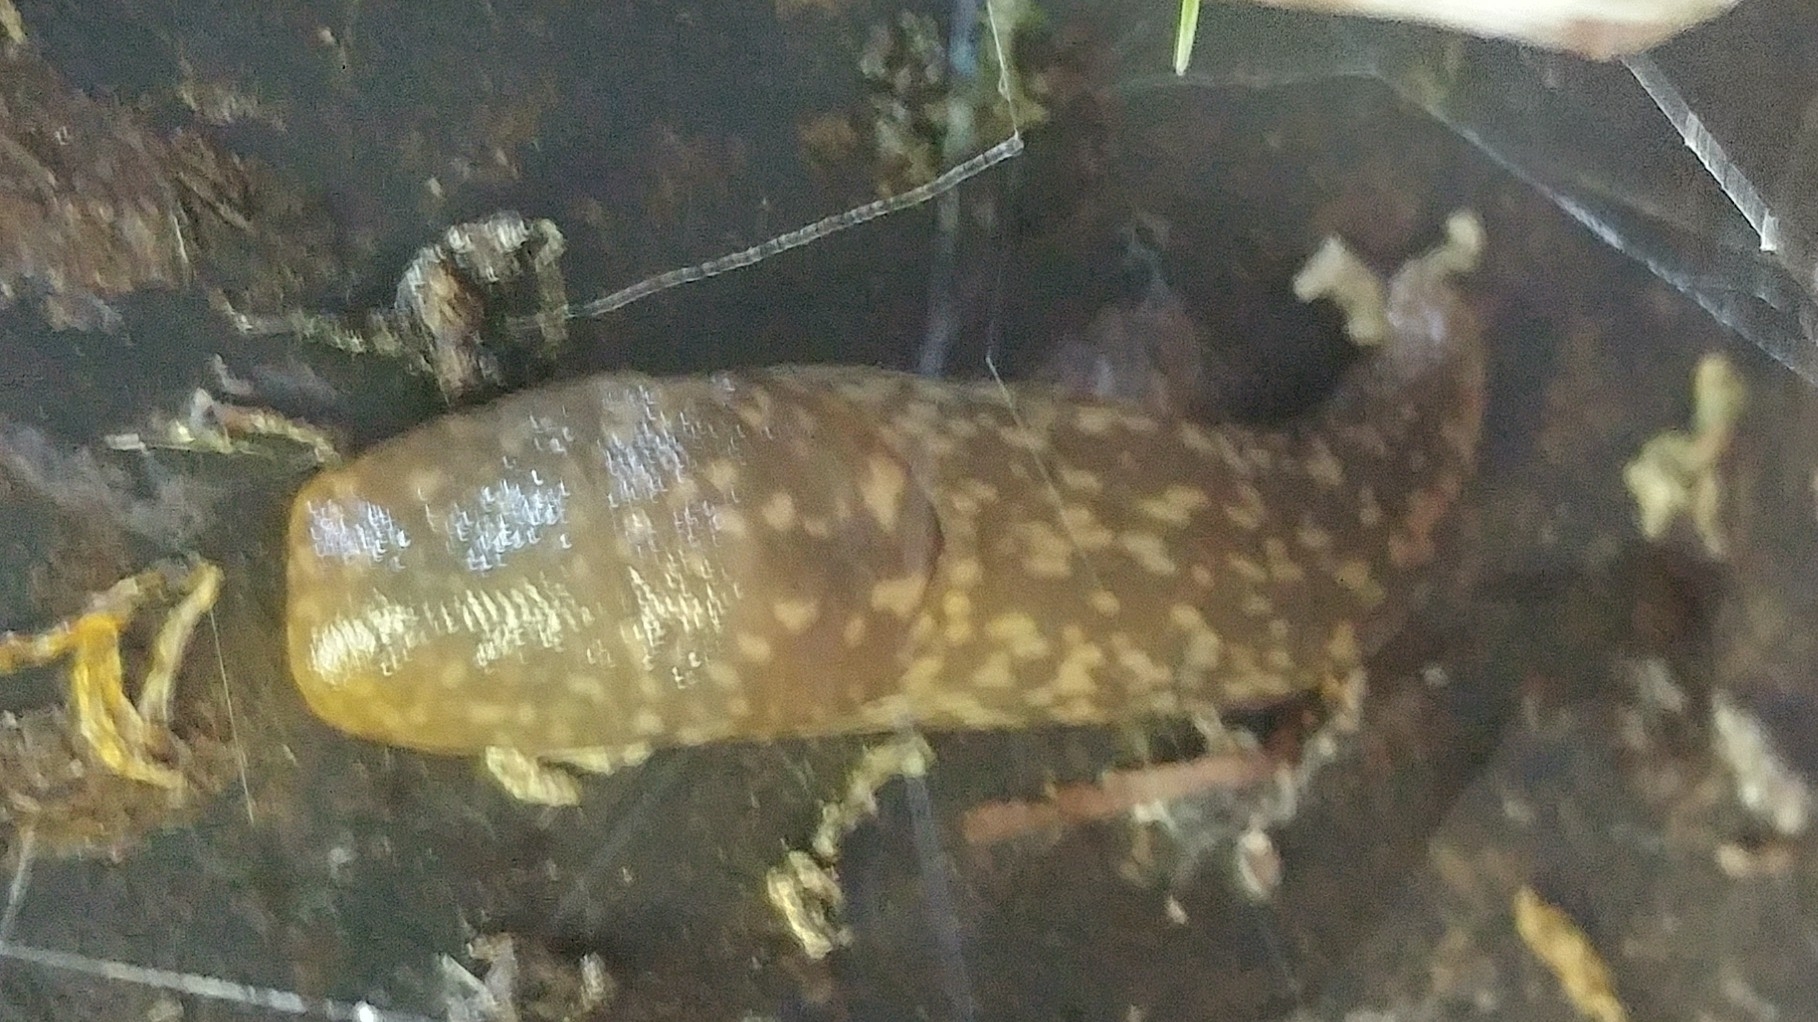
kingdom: Animalia
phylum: Mollusca
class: Gastropoda
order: Stylommatophora
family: Limacidae
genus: Limacus
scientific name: Limacus flavus
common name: Yellow gardenslug
